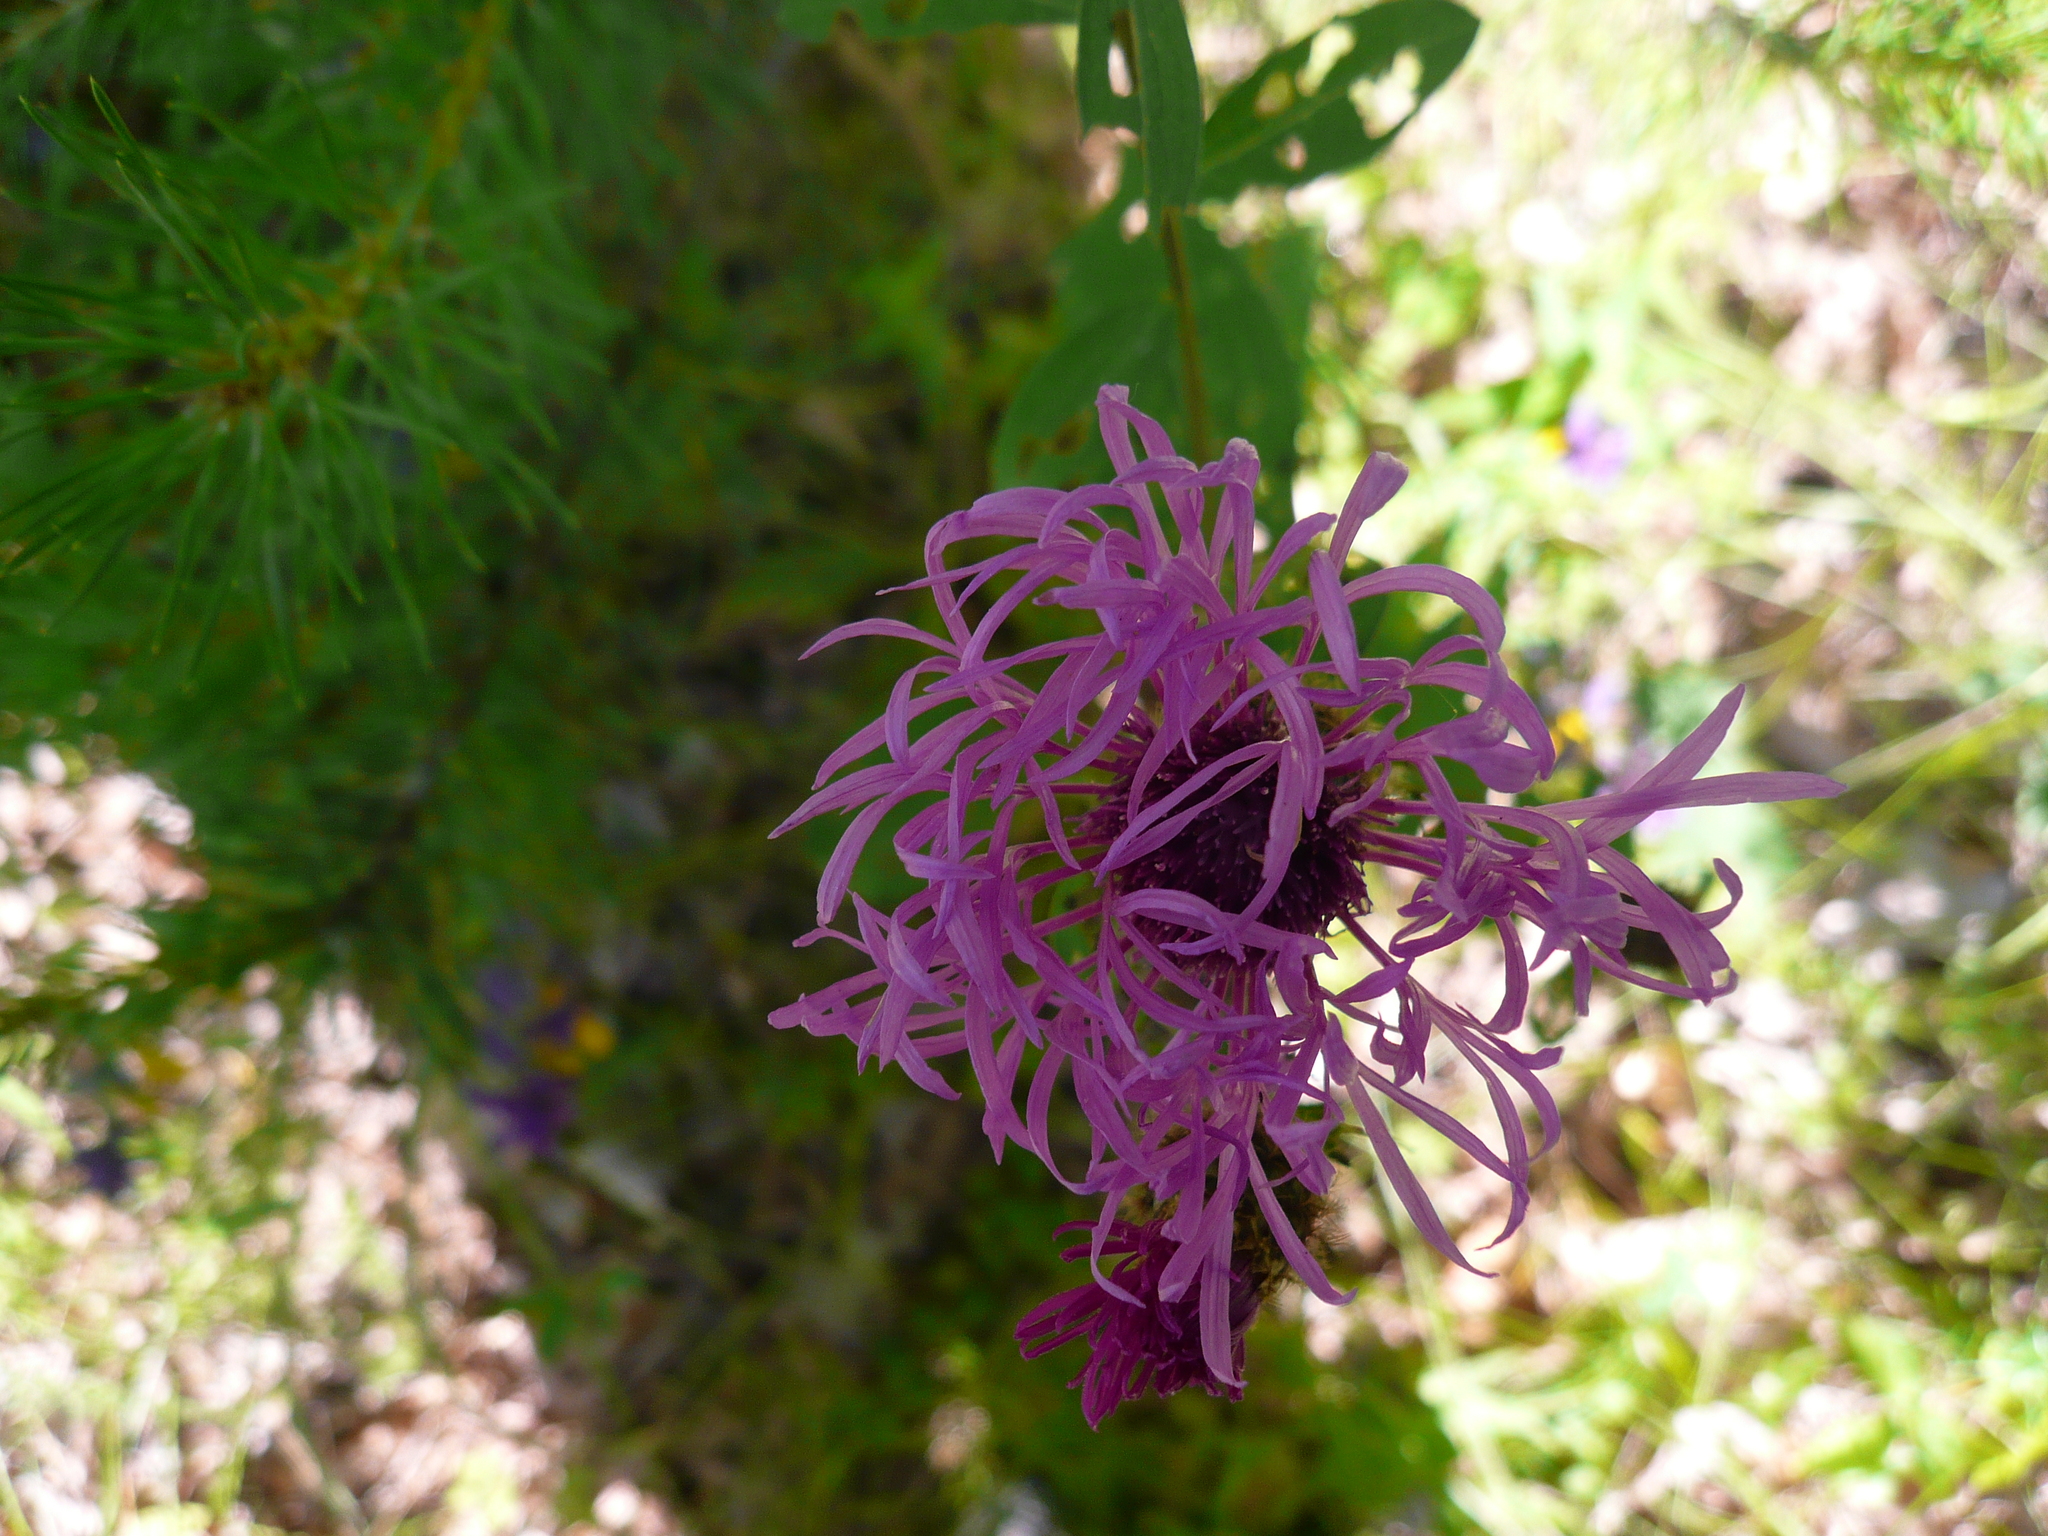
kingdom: Plantae
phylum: Tracheophyta
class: Magnoliopsida
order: Asterales
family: Asteraceae
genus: Centaurea
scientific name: Centaurea phrygia
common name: Wig knapweed
